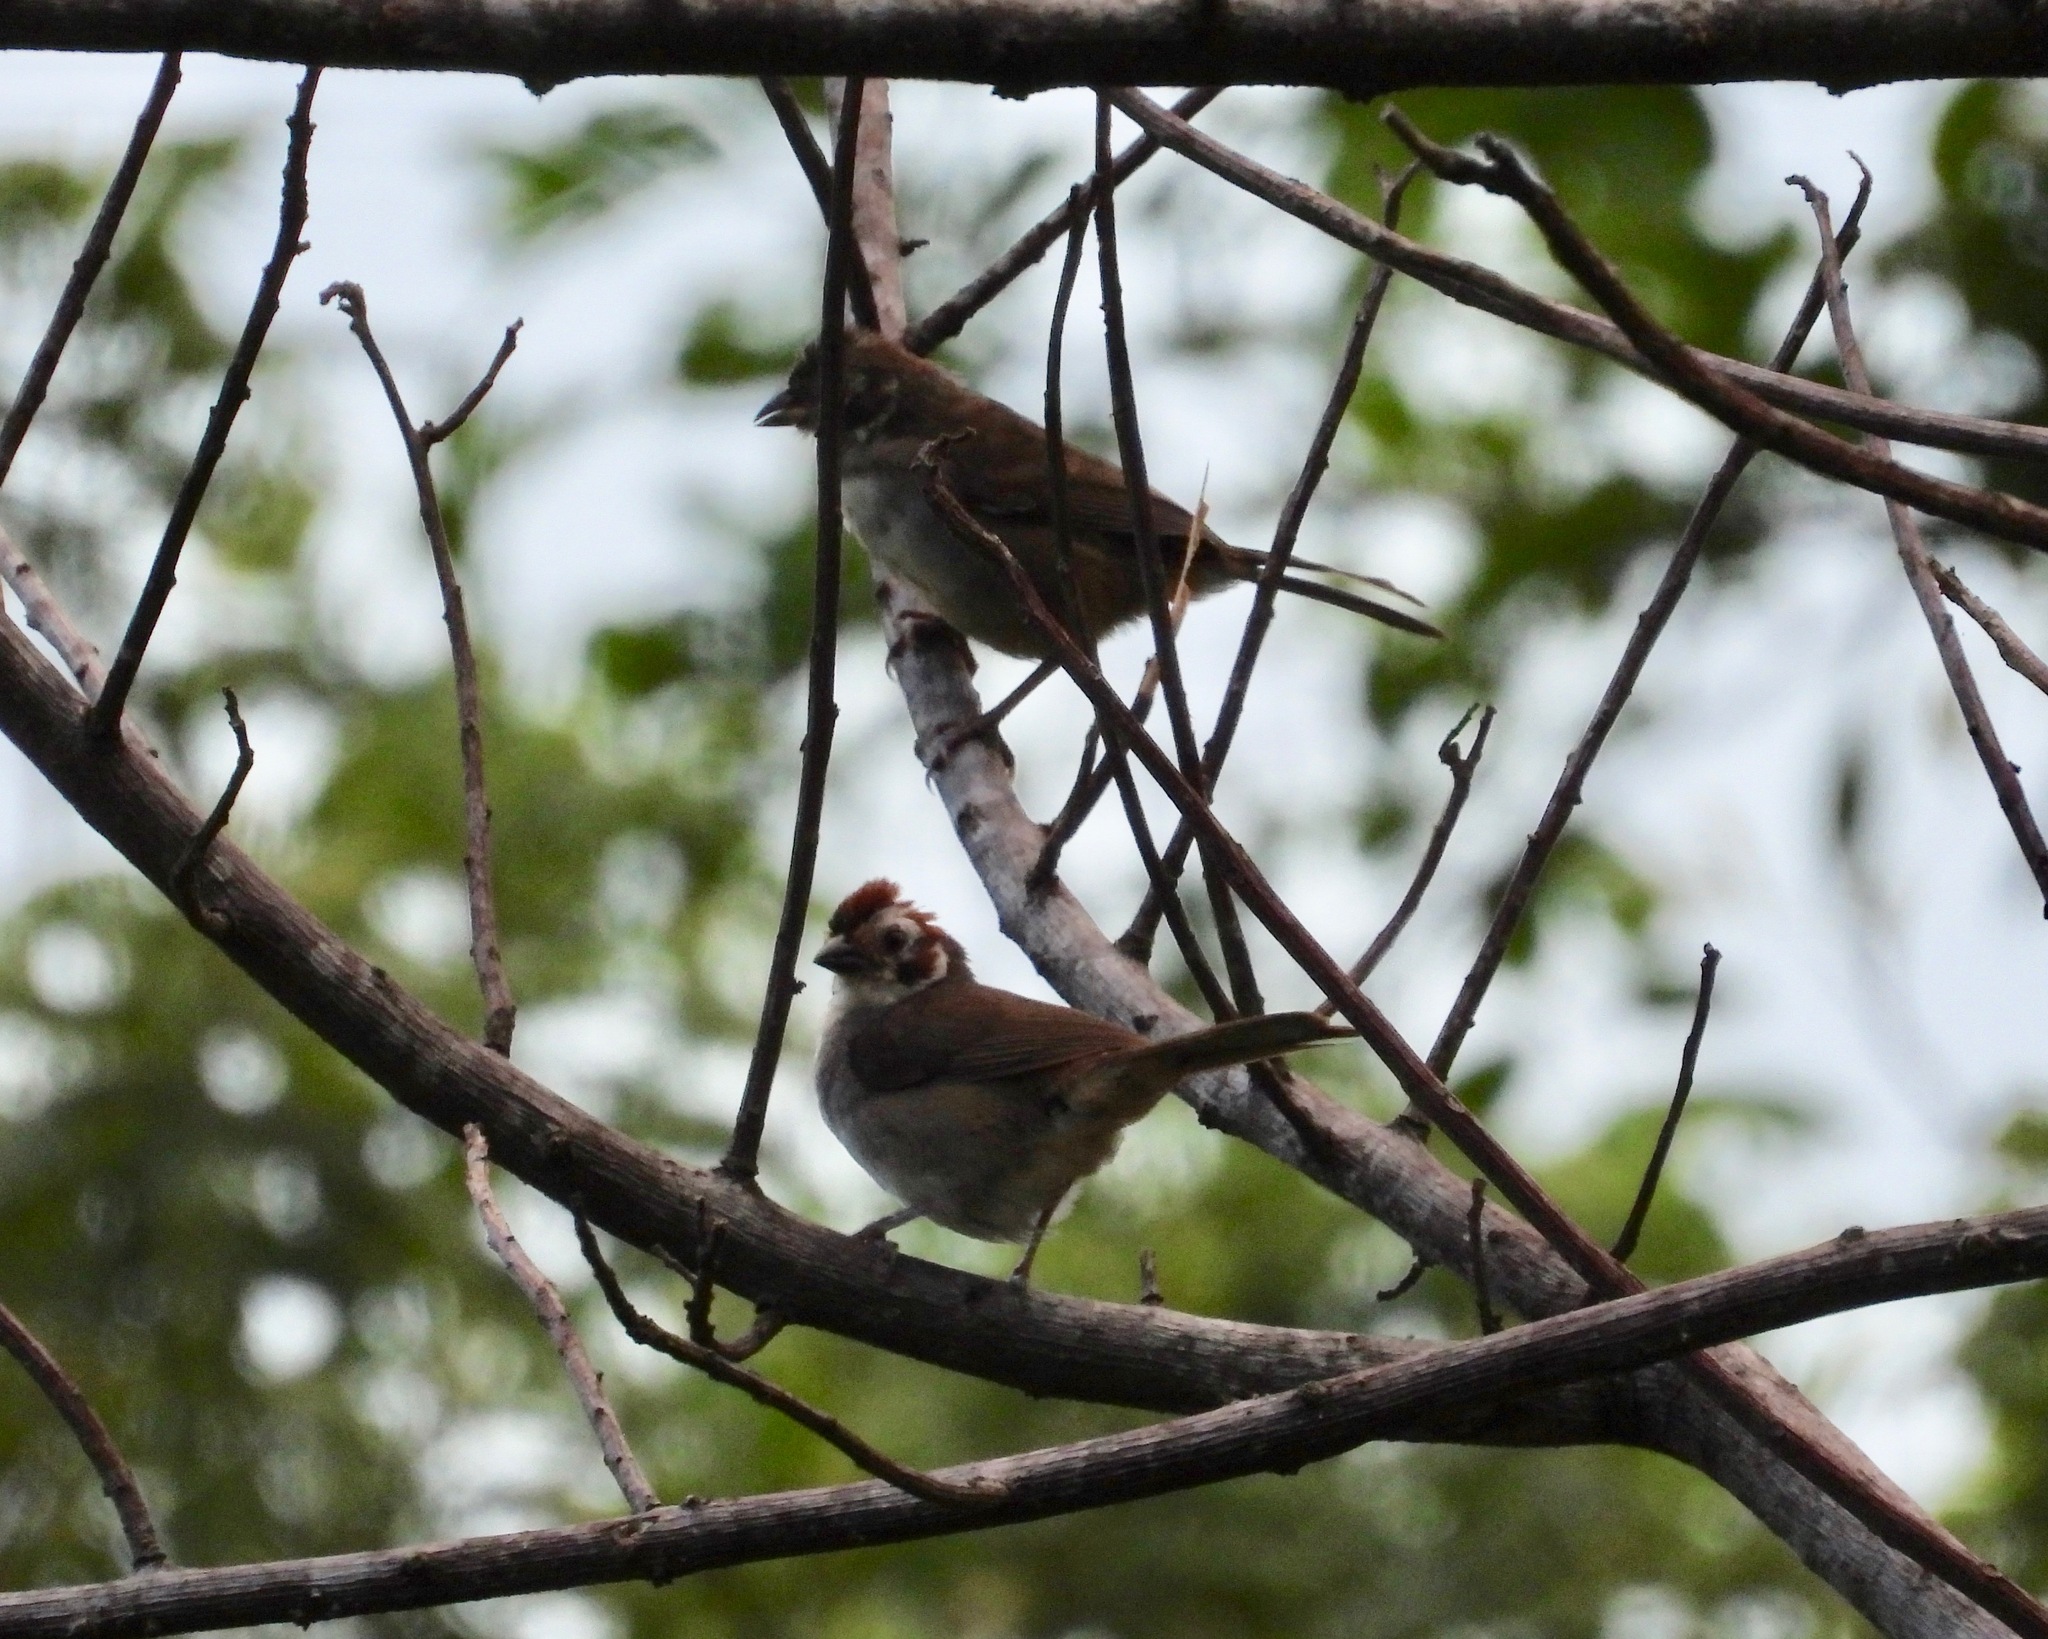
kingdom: Animalia
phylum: Chordata
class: Aves
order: Passeriformes
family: Passerellidae
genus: Melozone
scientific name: Melozone biarcuata
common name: Prevost's ground-sparrow
